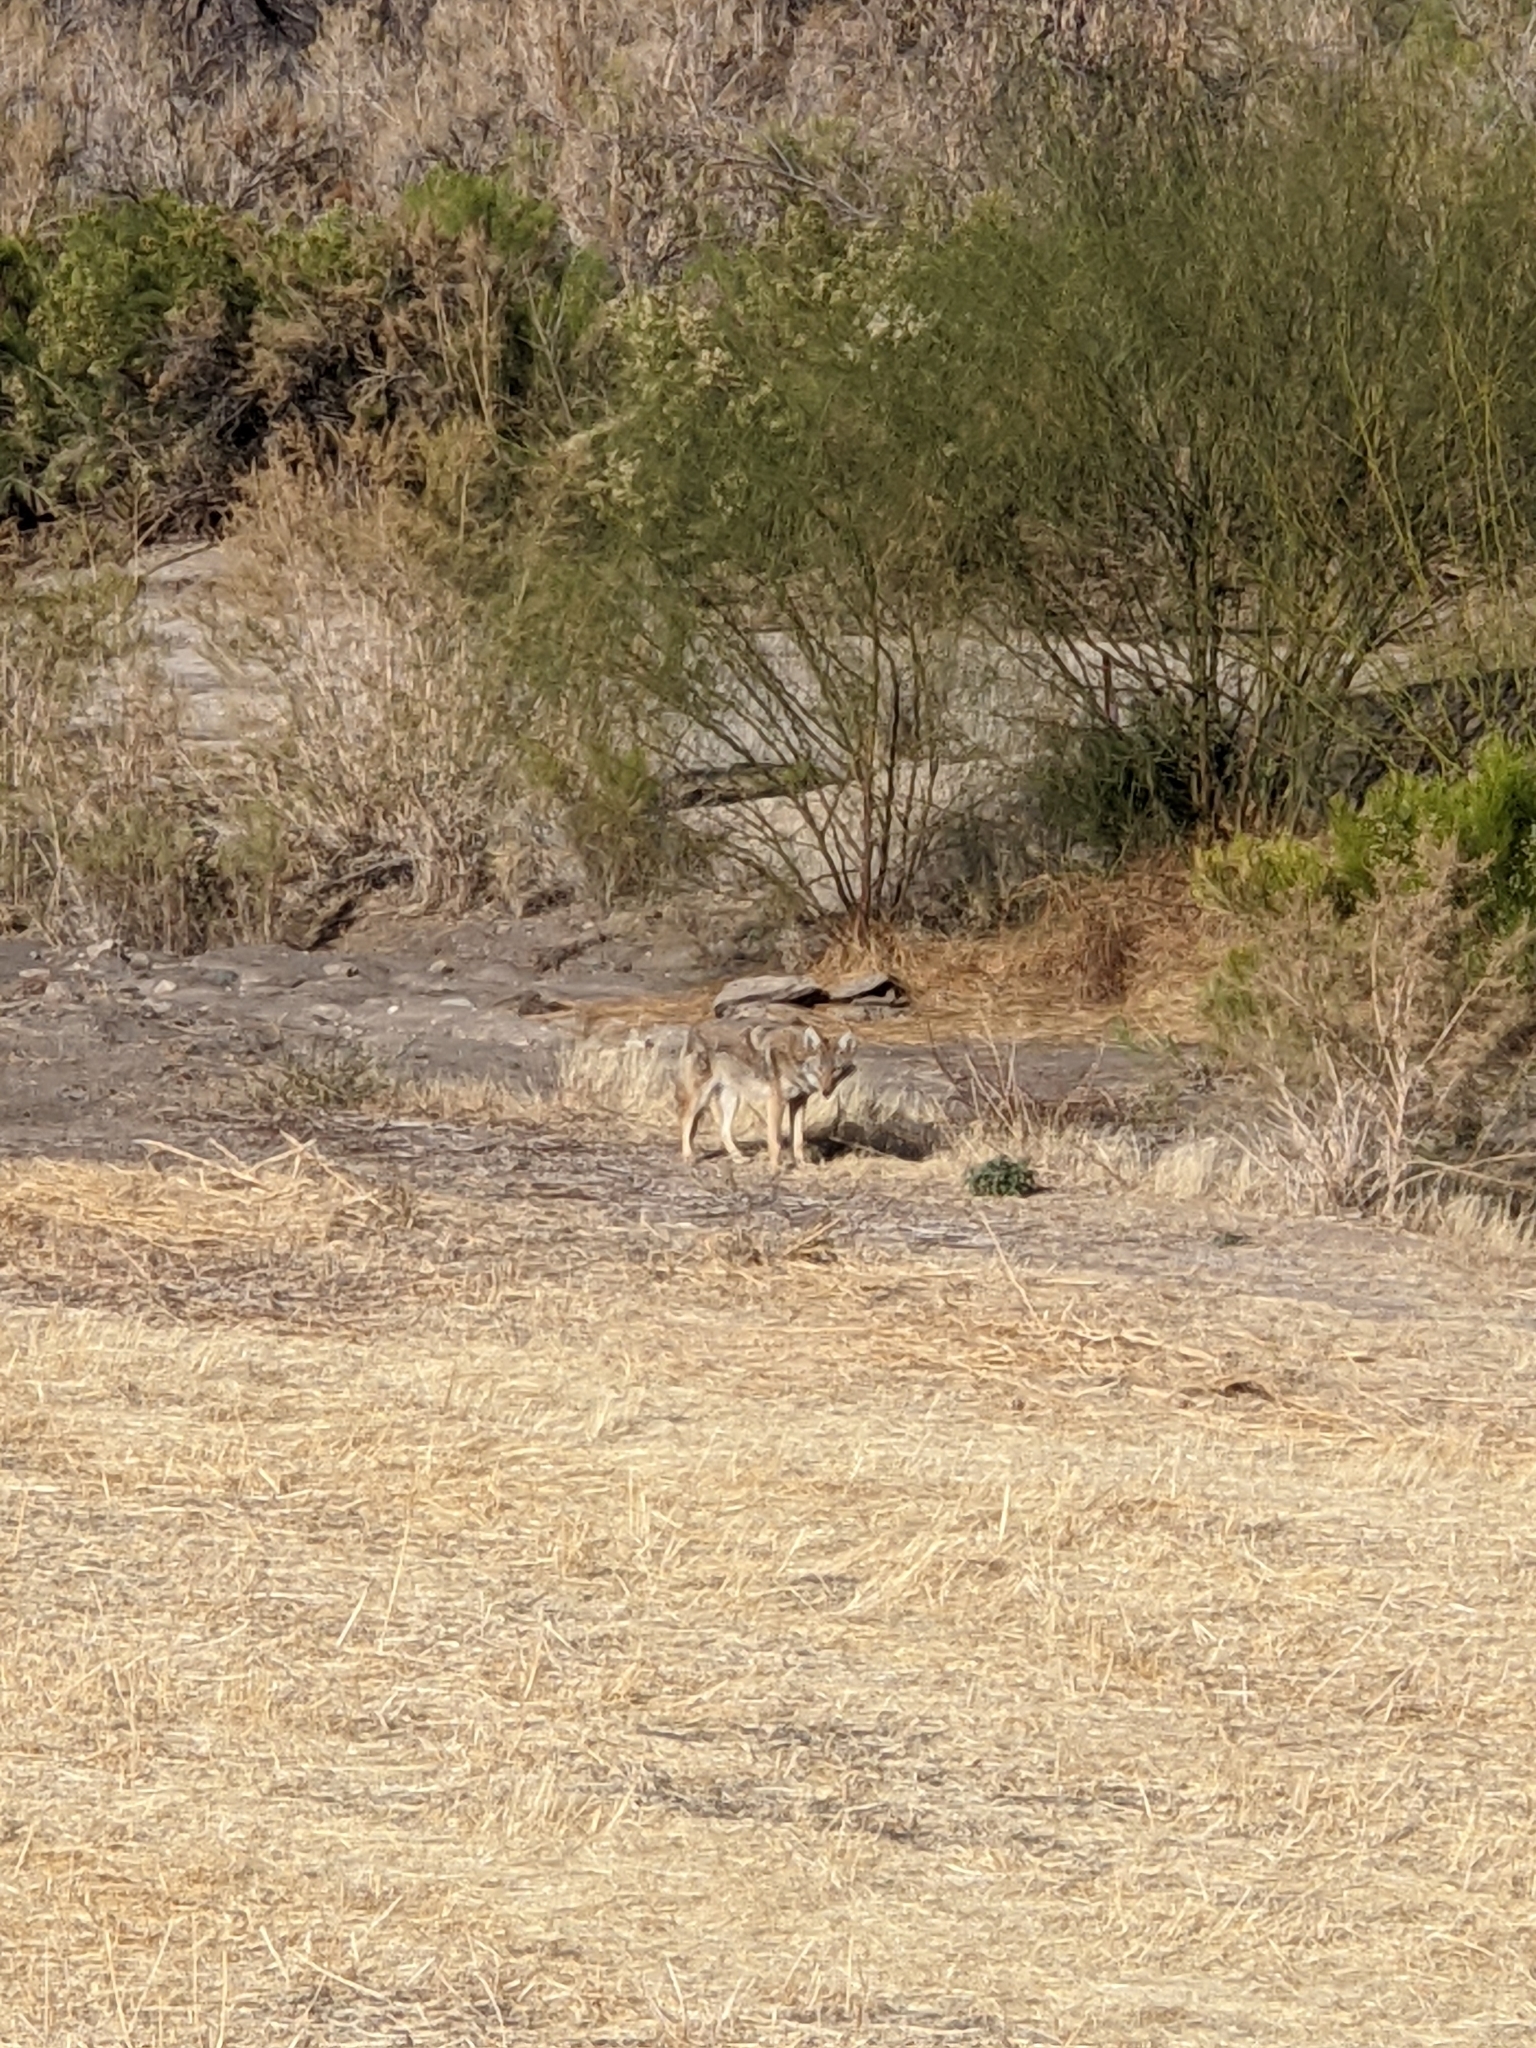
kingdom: Animalia
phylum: Chordata
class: Mammalia
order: Carnivora
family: Canidae
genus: Canis
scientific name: Canis latrans
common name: Coyote
